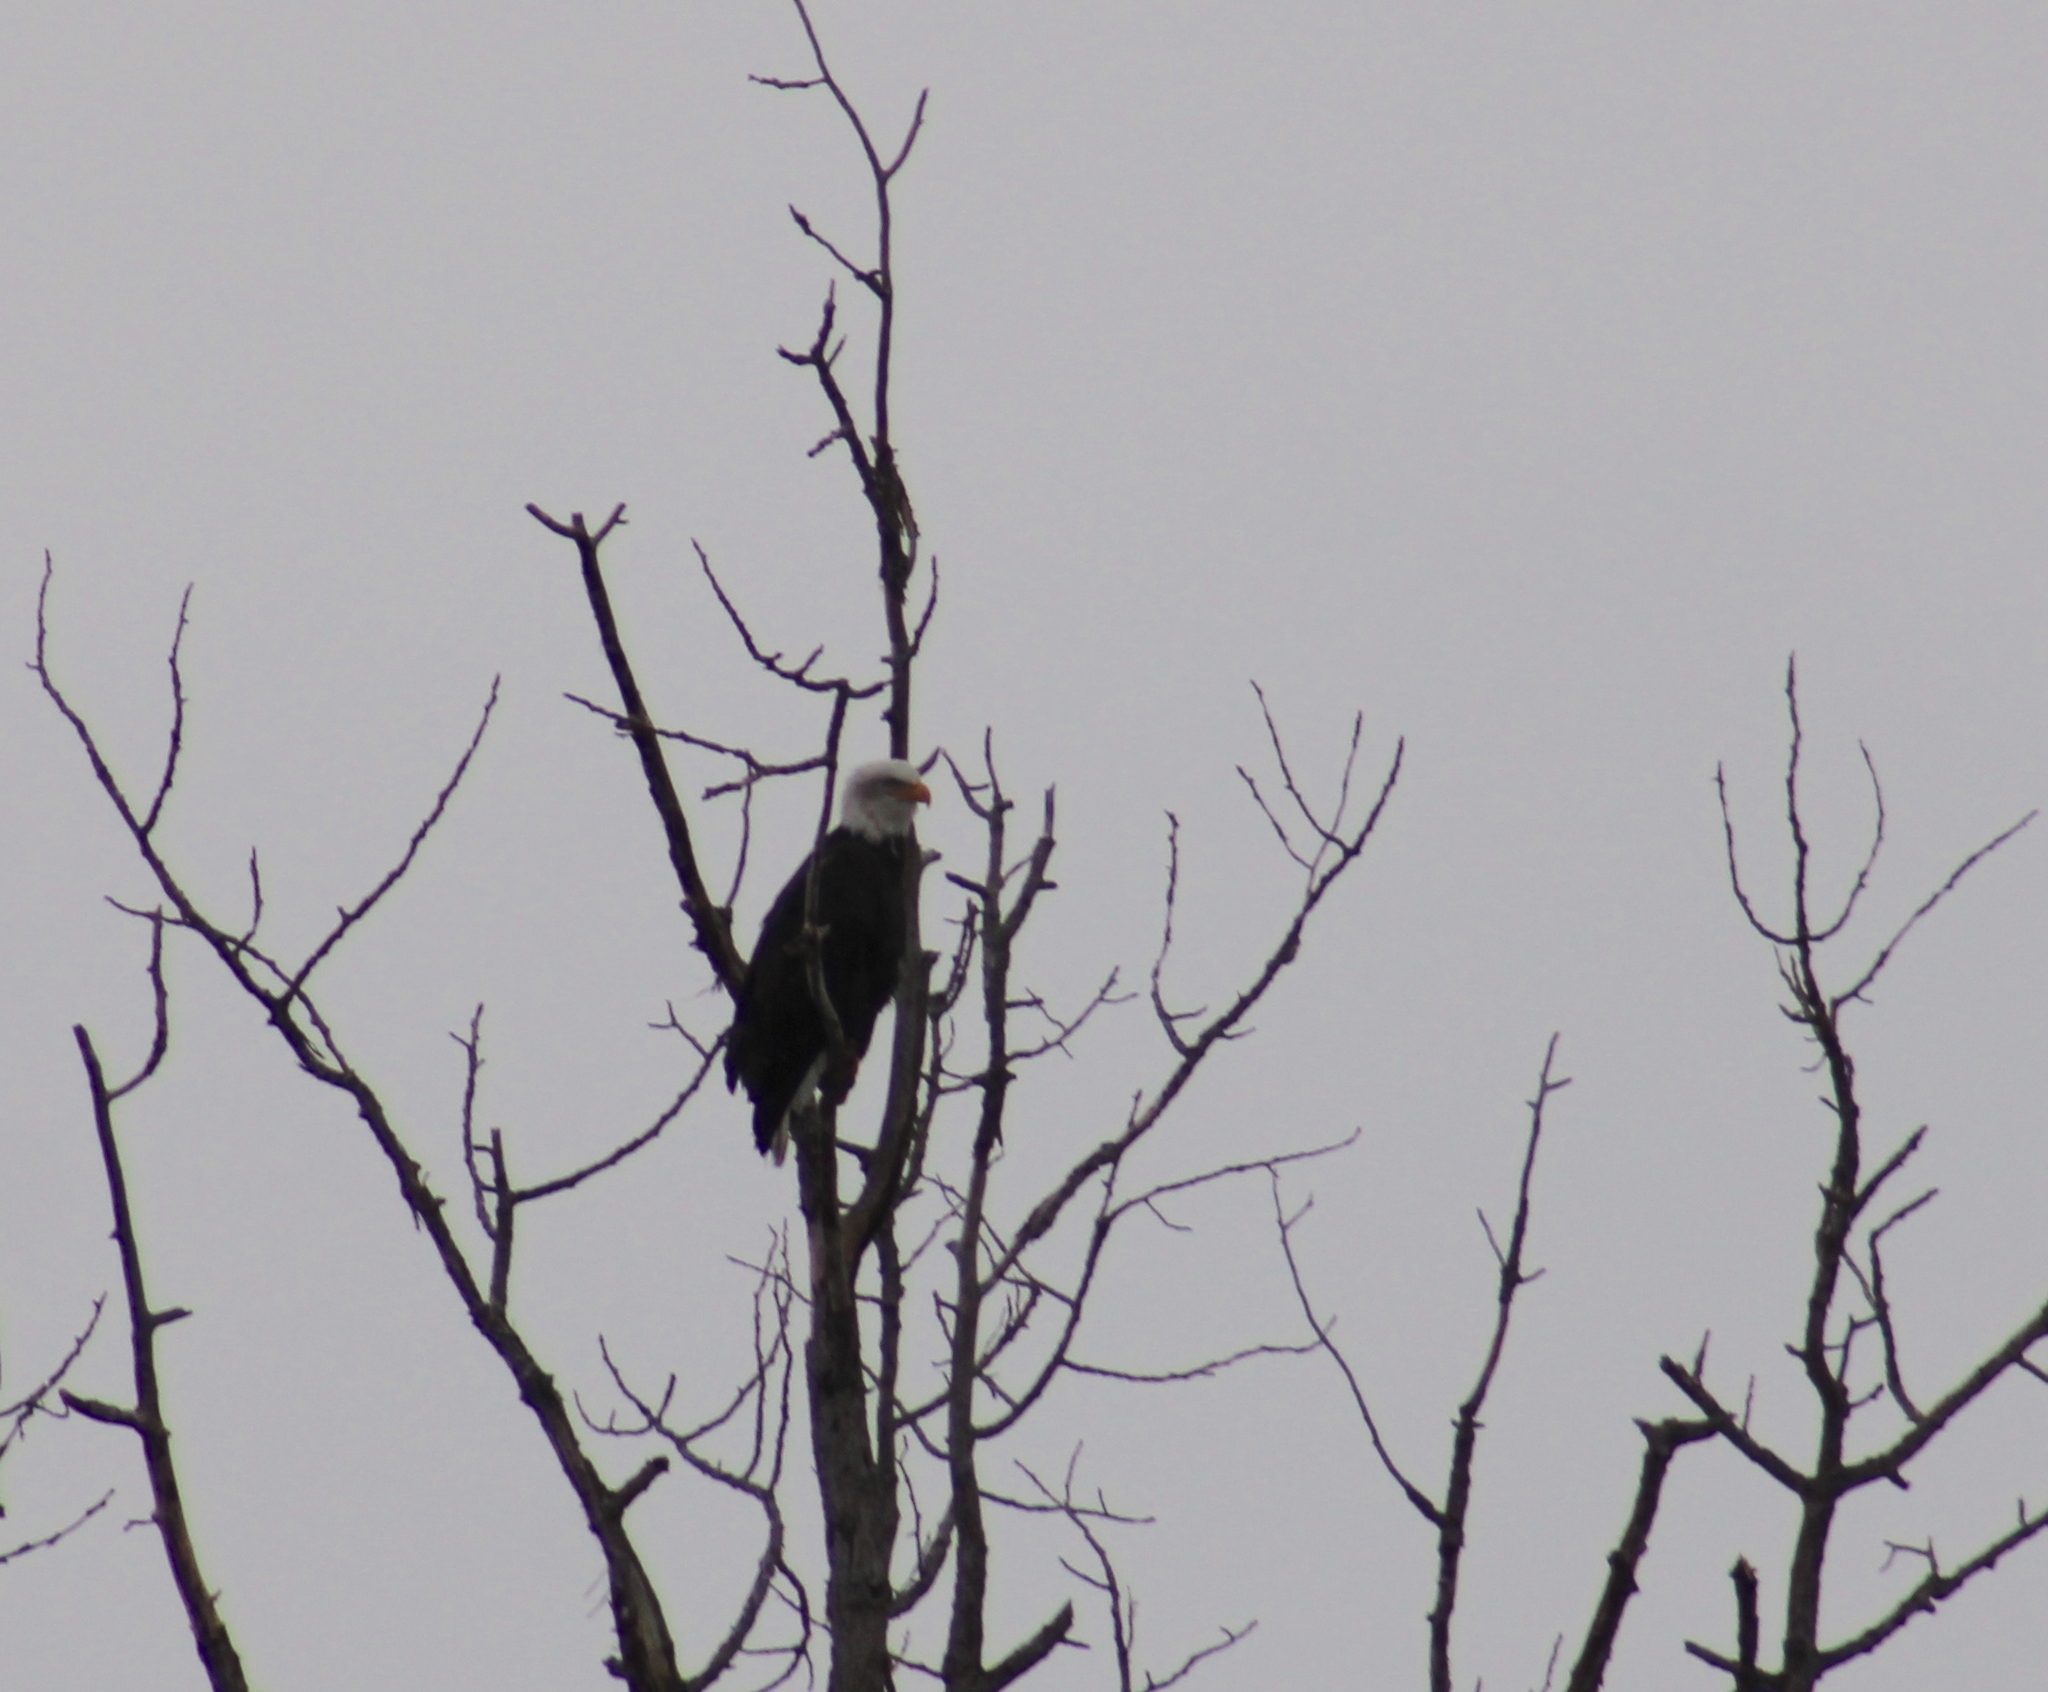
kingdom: Animalia
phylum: Chordata
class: Aves
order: Accipitriformes
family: Accipitridae
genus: Haliaeetus
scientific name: Haliaeetus leucocephalus
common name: Bald eagle
